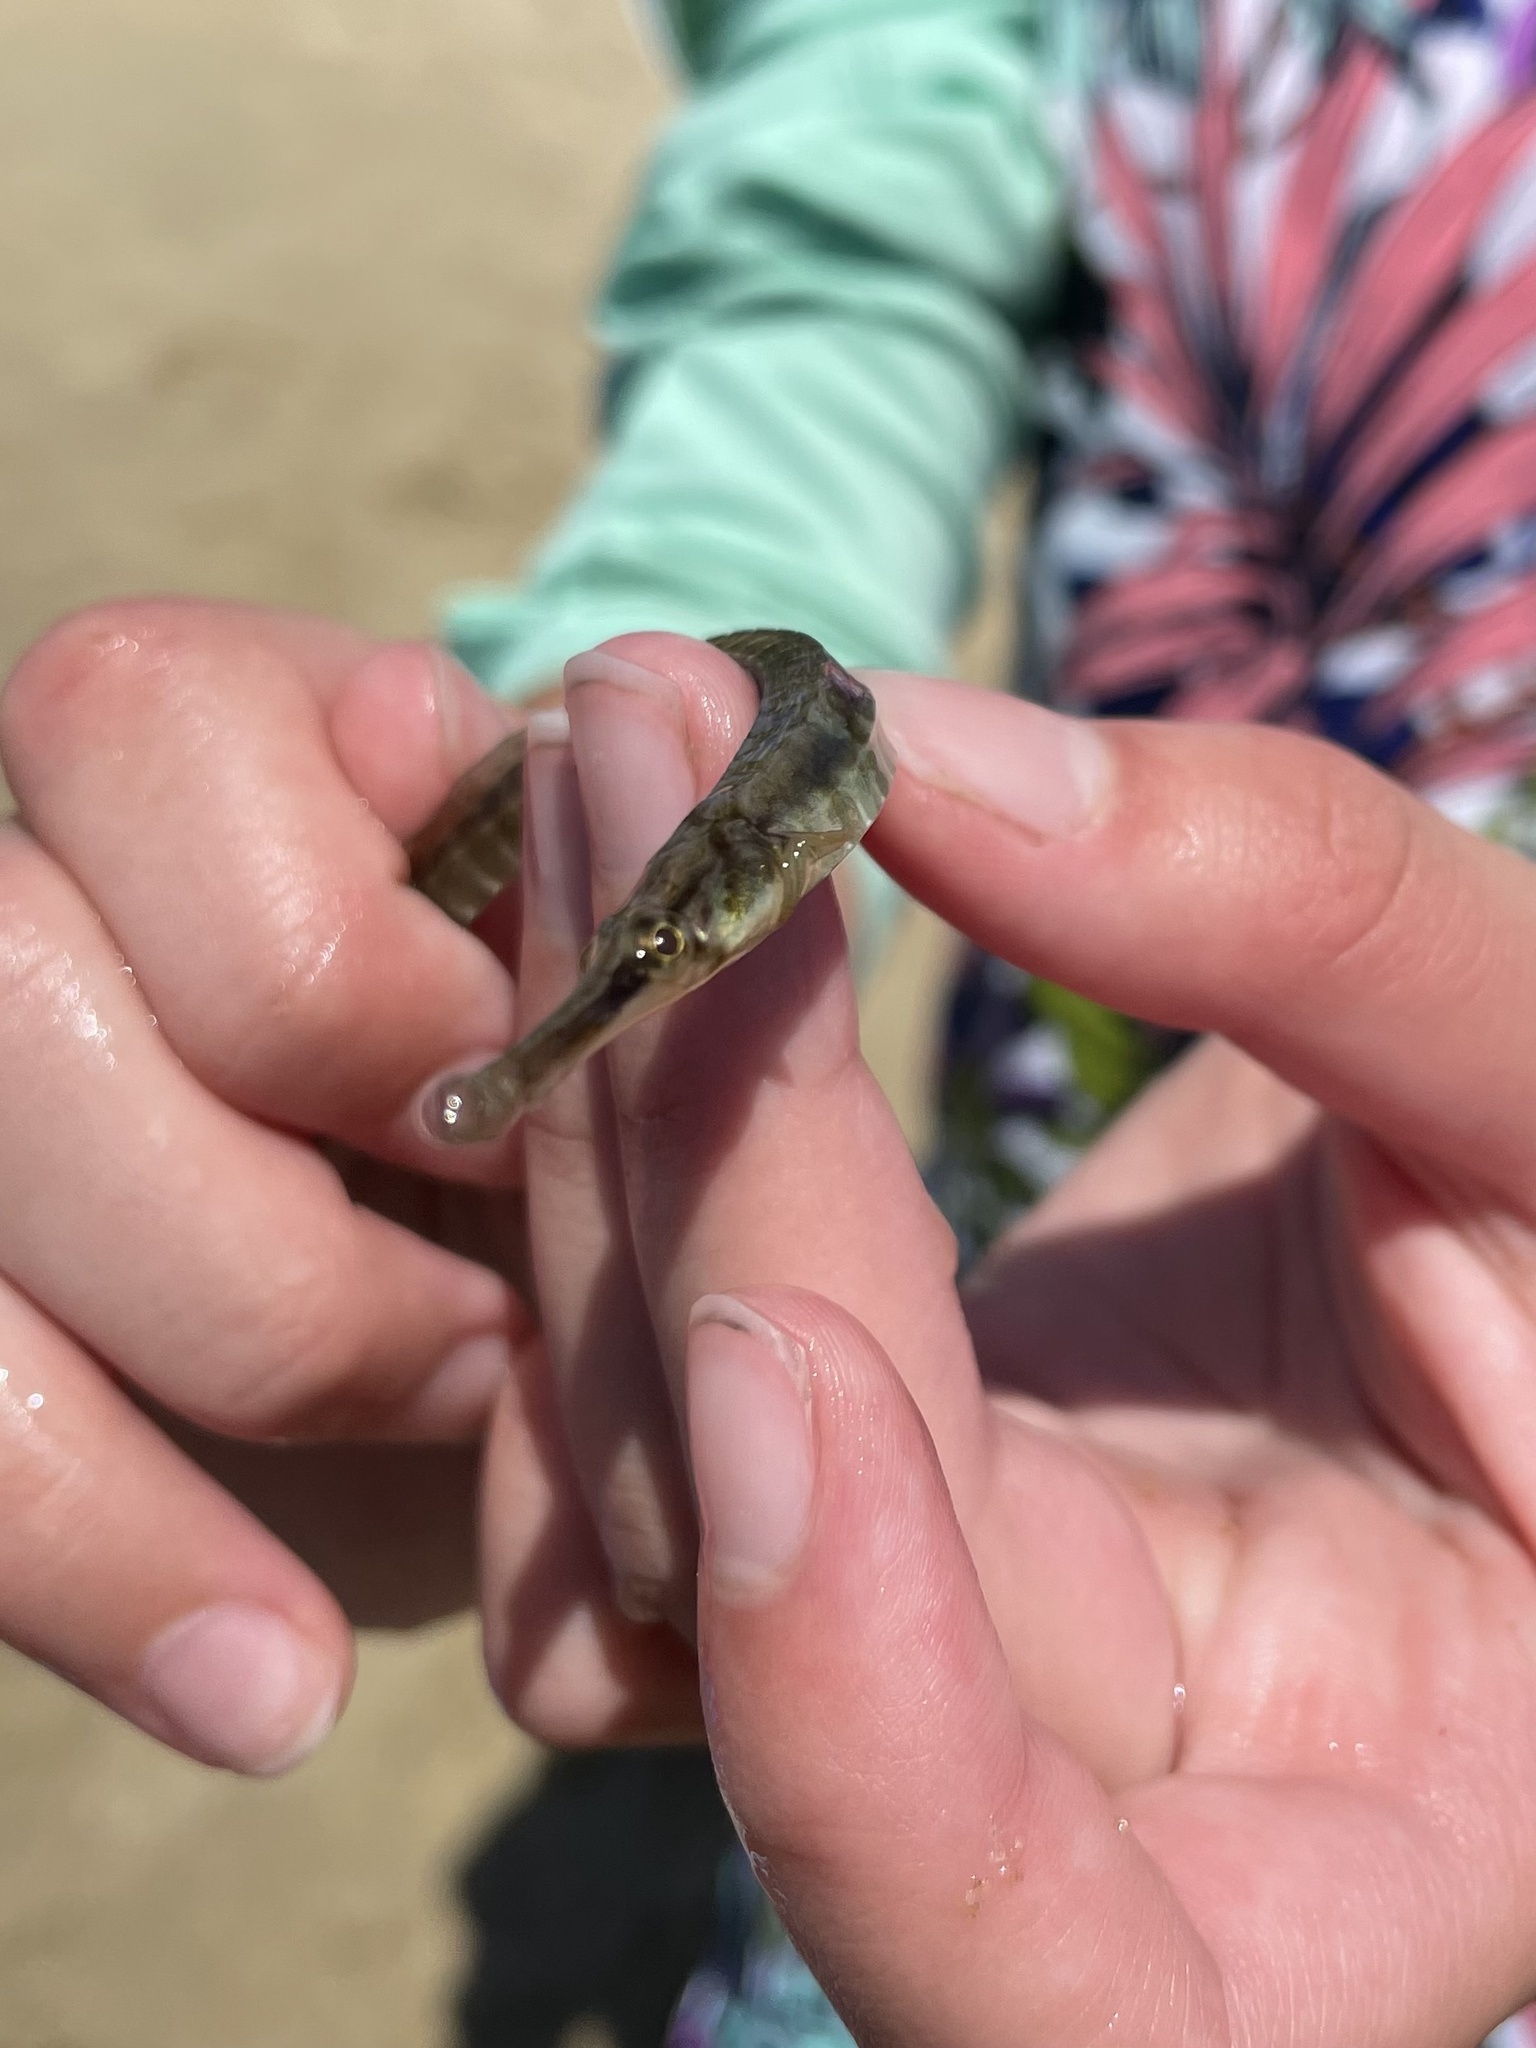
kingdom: Animalia
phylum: Chordata
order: Syngnathiformes
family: Syngnathidae
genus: Syngnathus
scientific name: Syngnathus fuscus
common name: Northern pipefish
